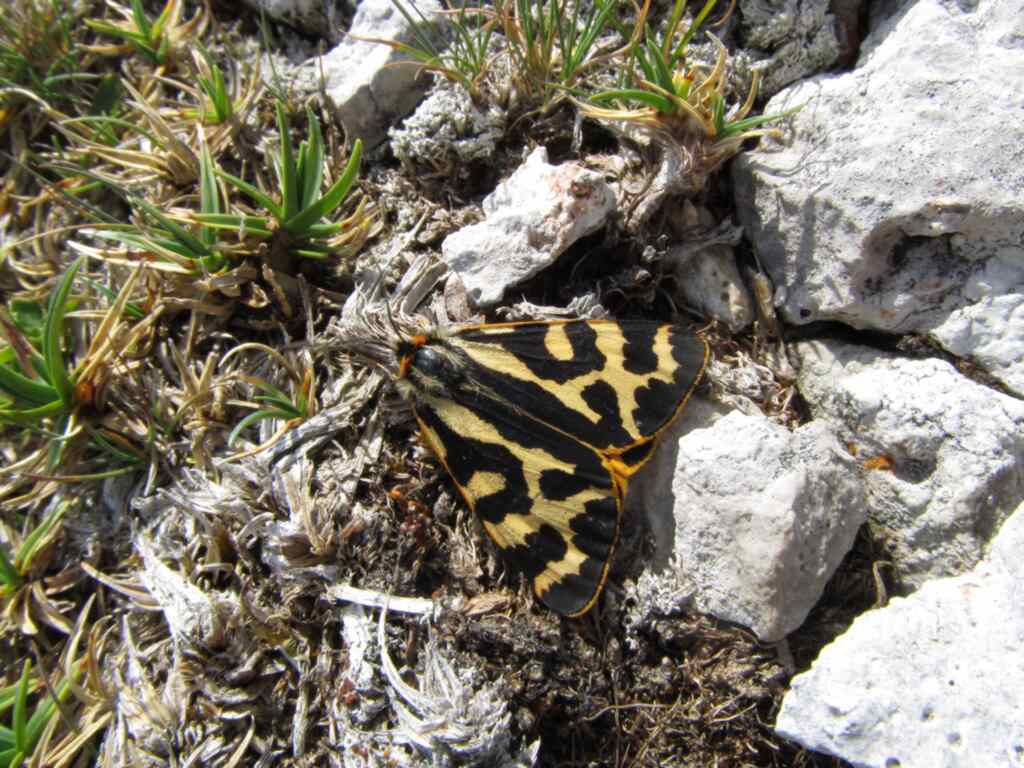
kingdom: Animalia
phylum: Arthropoda
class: Insecta
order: Lepidoptera
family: Erebidae
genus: Parasemia
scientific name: Parasemia plantaginis
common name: Wood tiger
